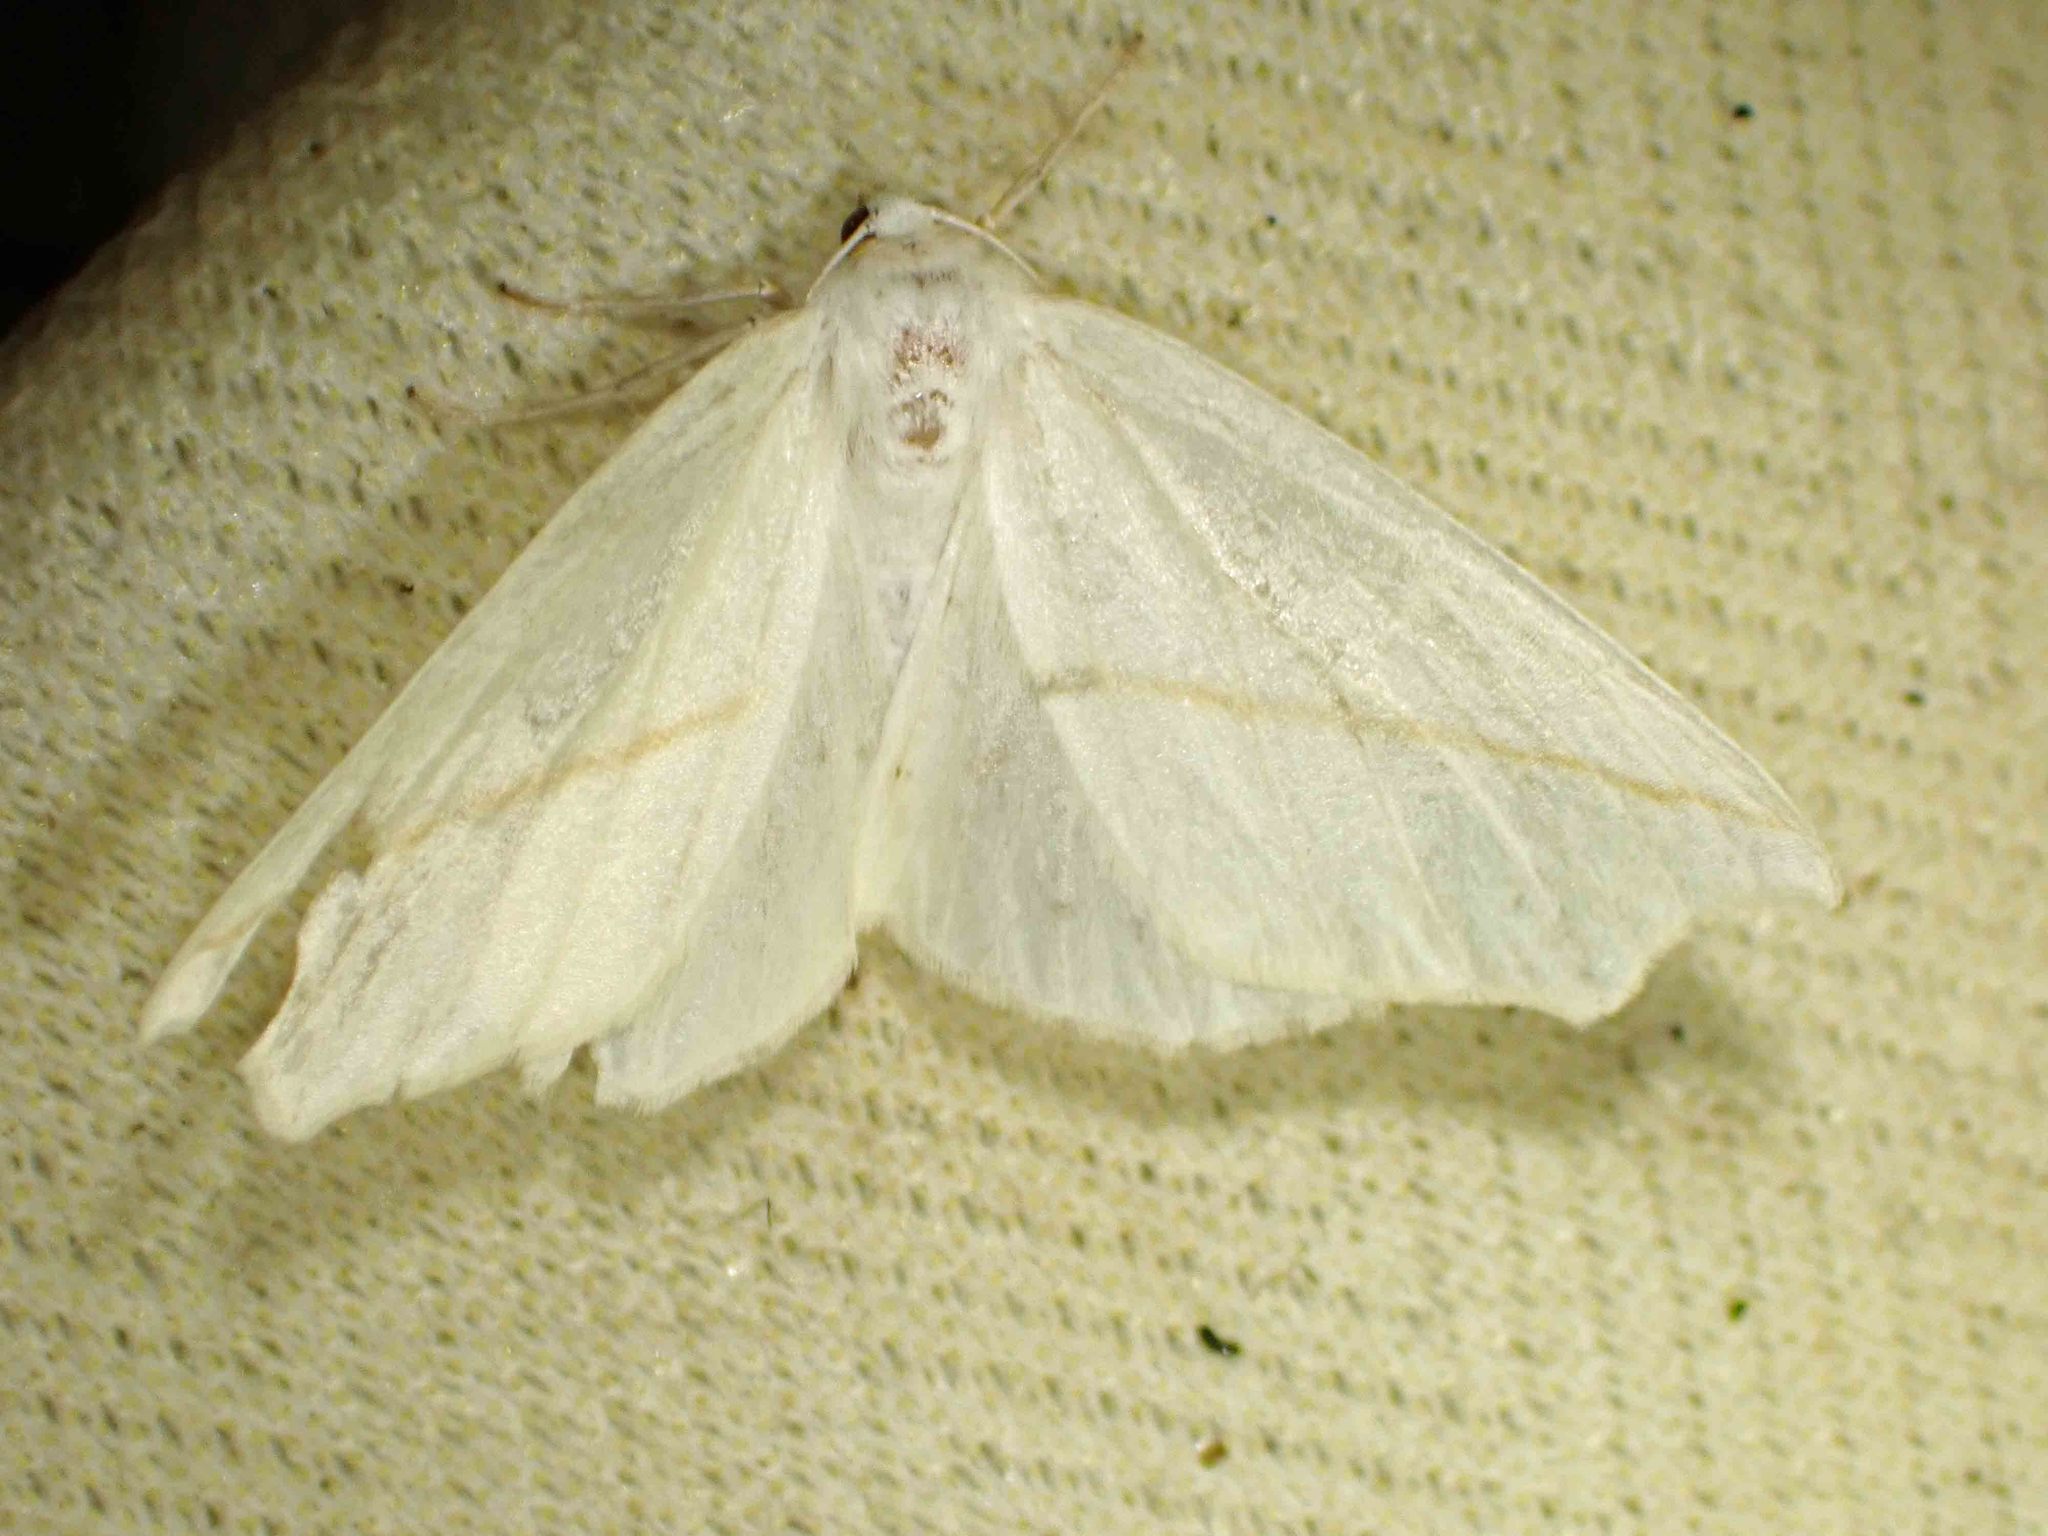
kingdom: Animalia
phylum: Arthropoda
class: Insecta
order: Lepidoptera
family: Geometridae
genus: Tetracis
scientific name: Tetracis cachexiata
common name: White slant-line
